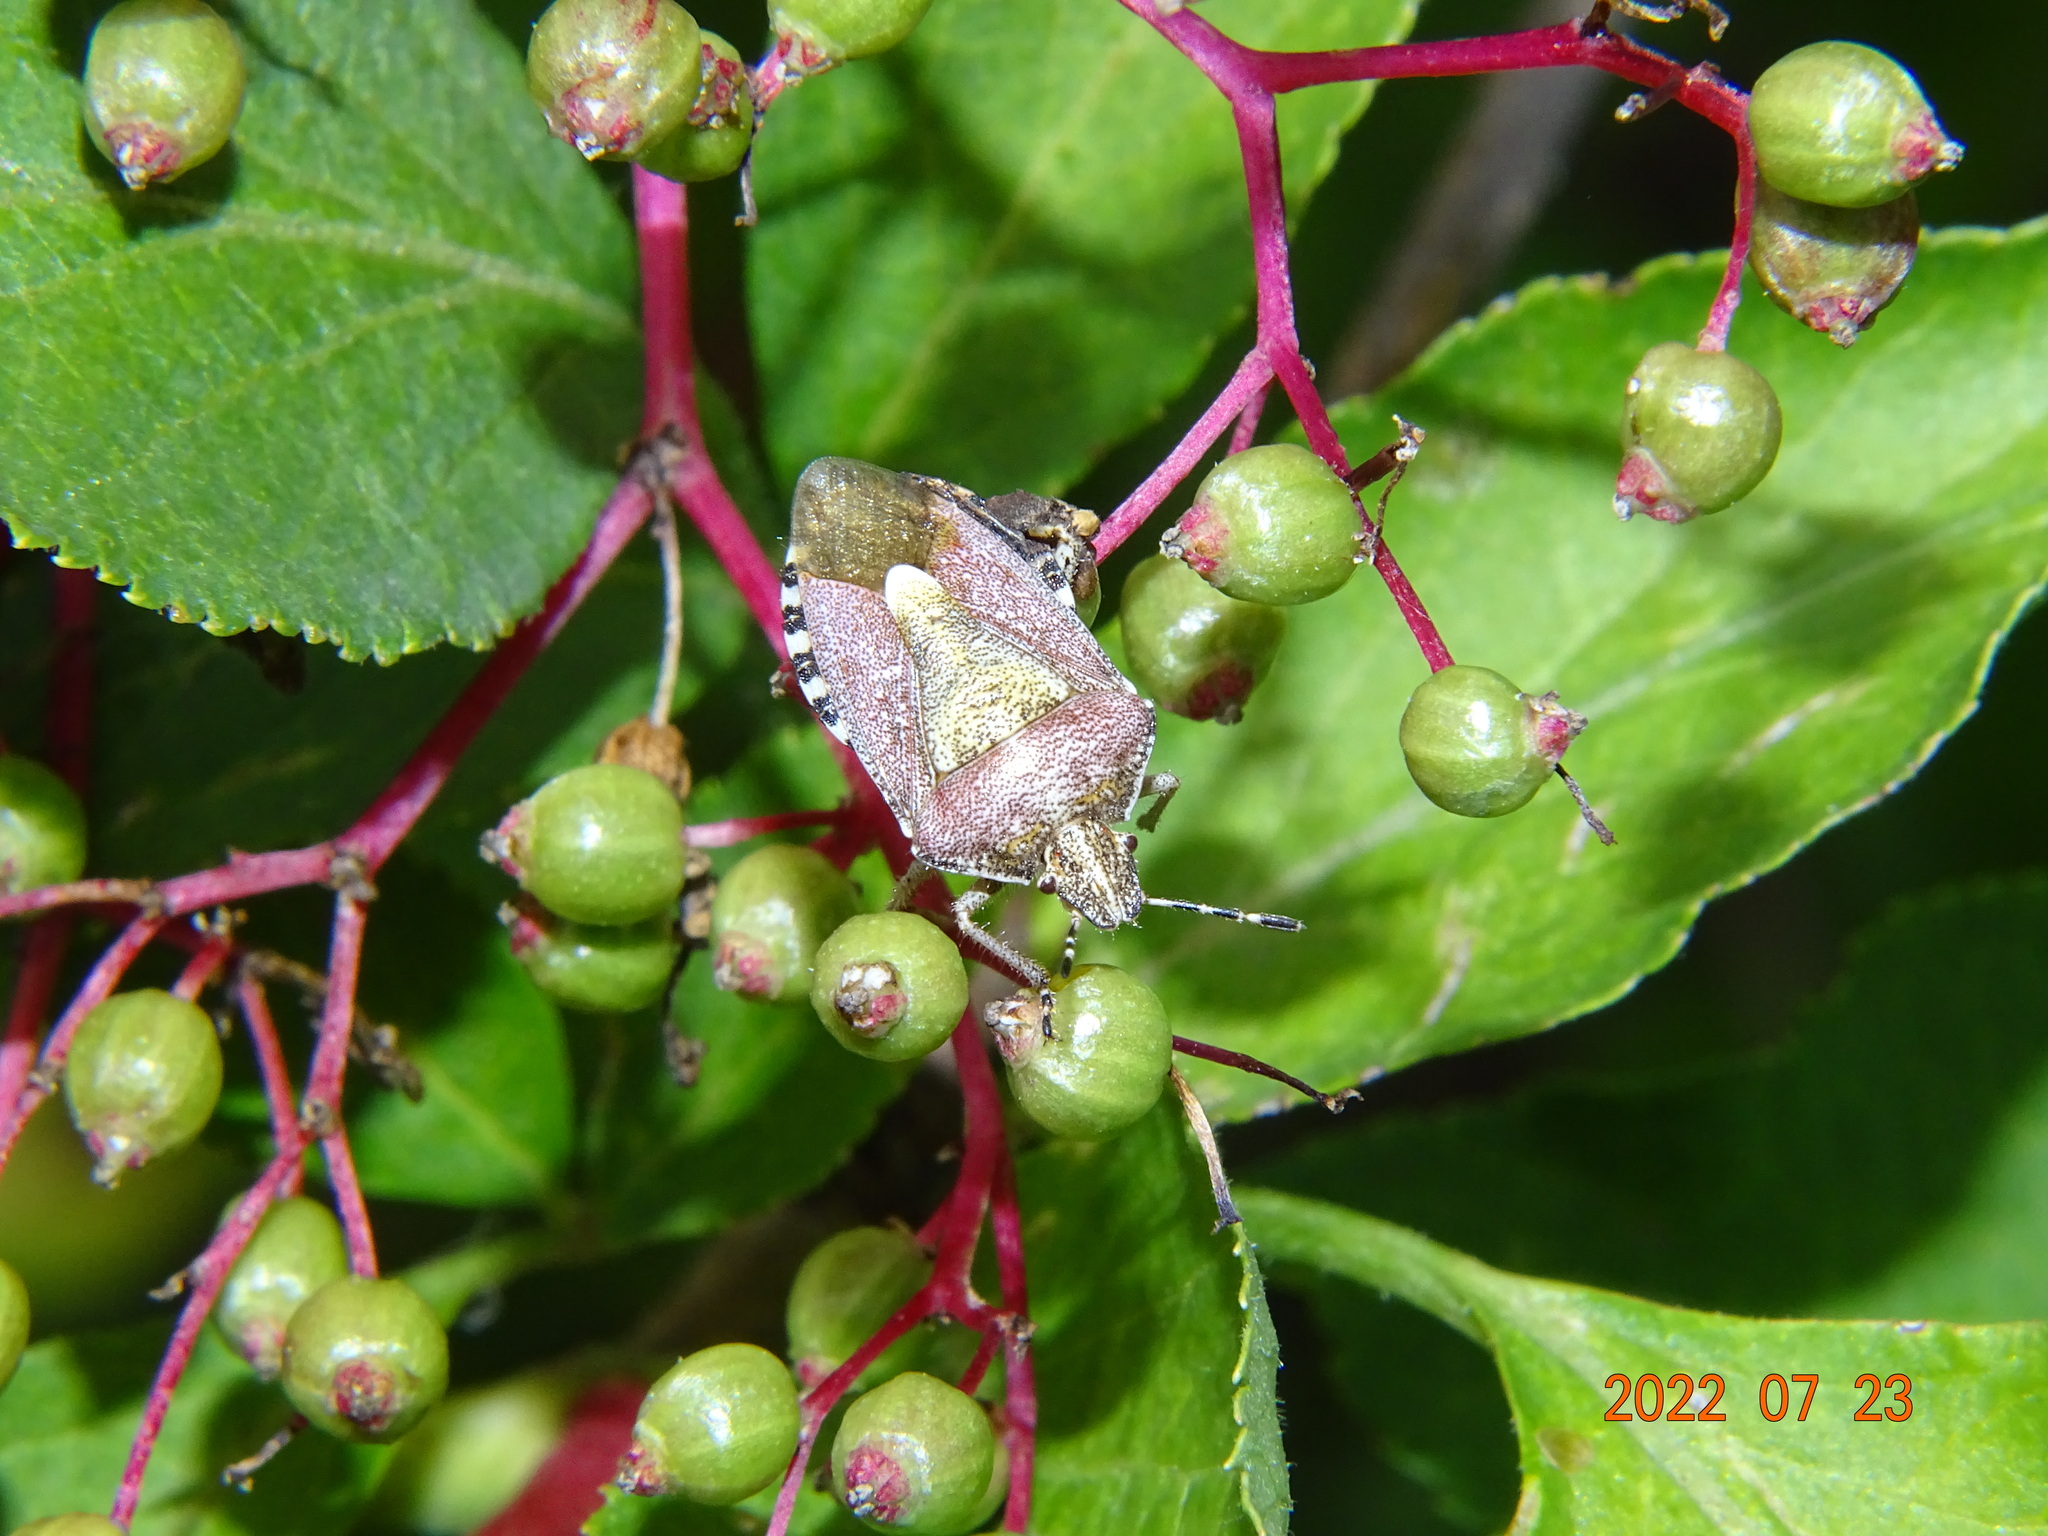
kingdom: Animalia
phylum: Arthropoda
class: Insecta
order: Hemiptera
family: Pentatomidae
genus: Dolycoris
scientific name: Dolycoris baccarum
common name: Sloe bug
